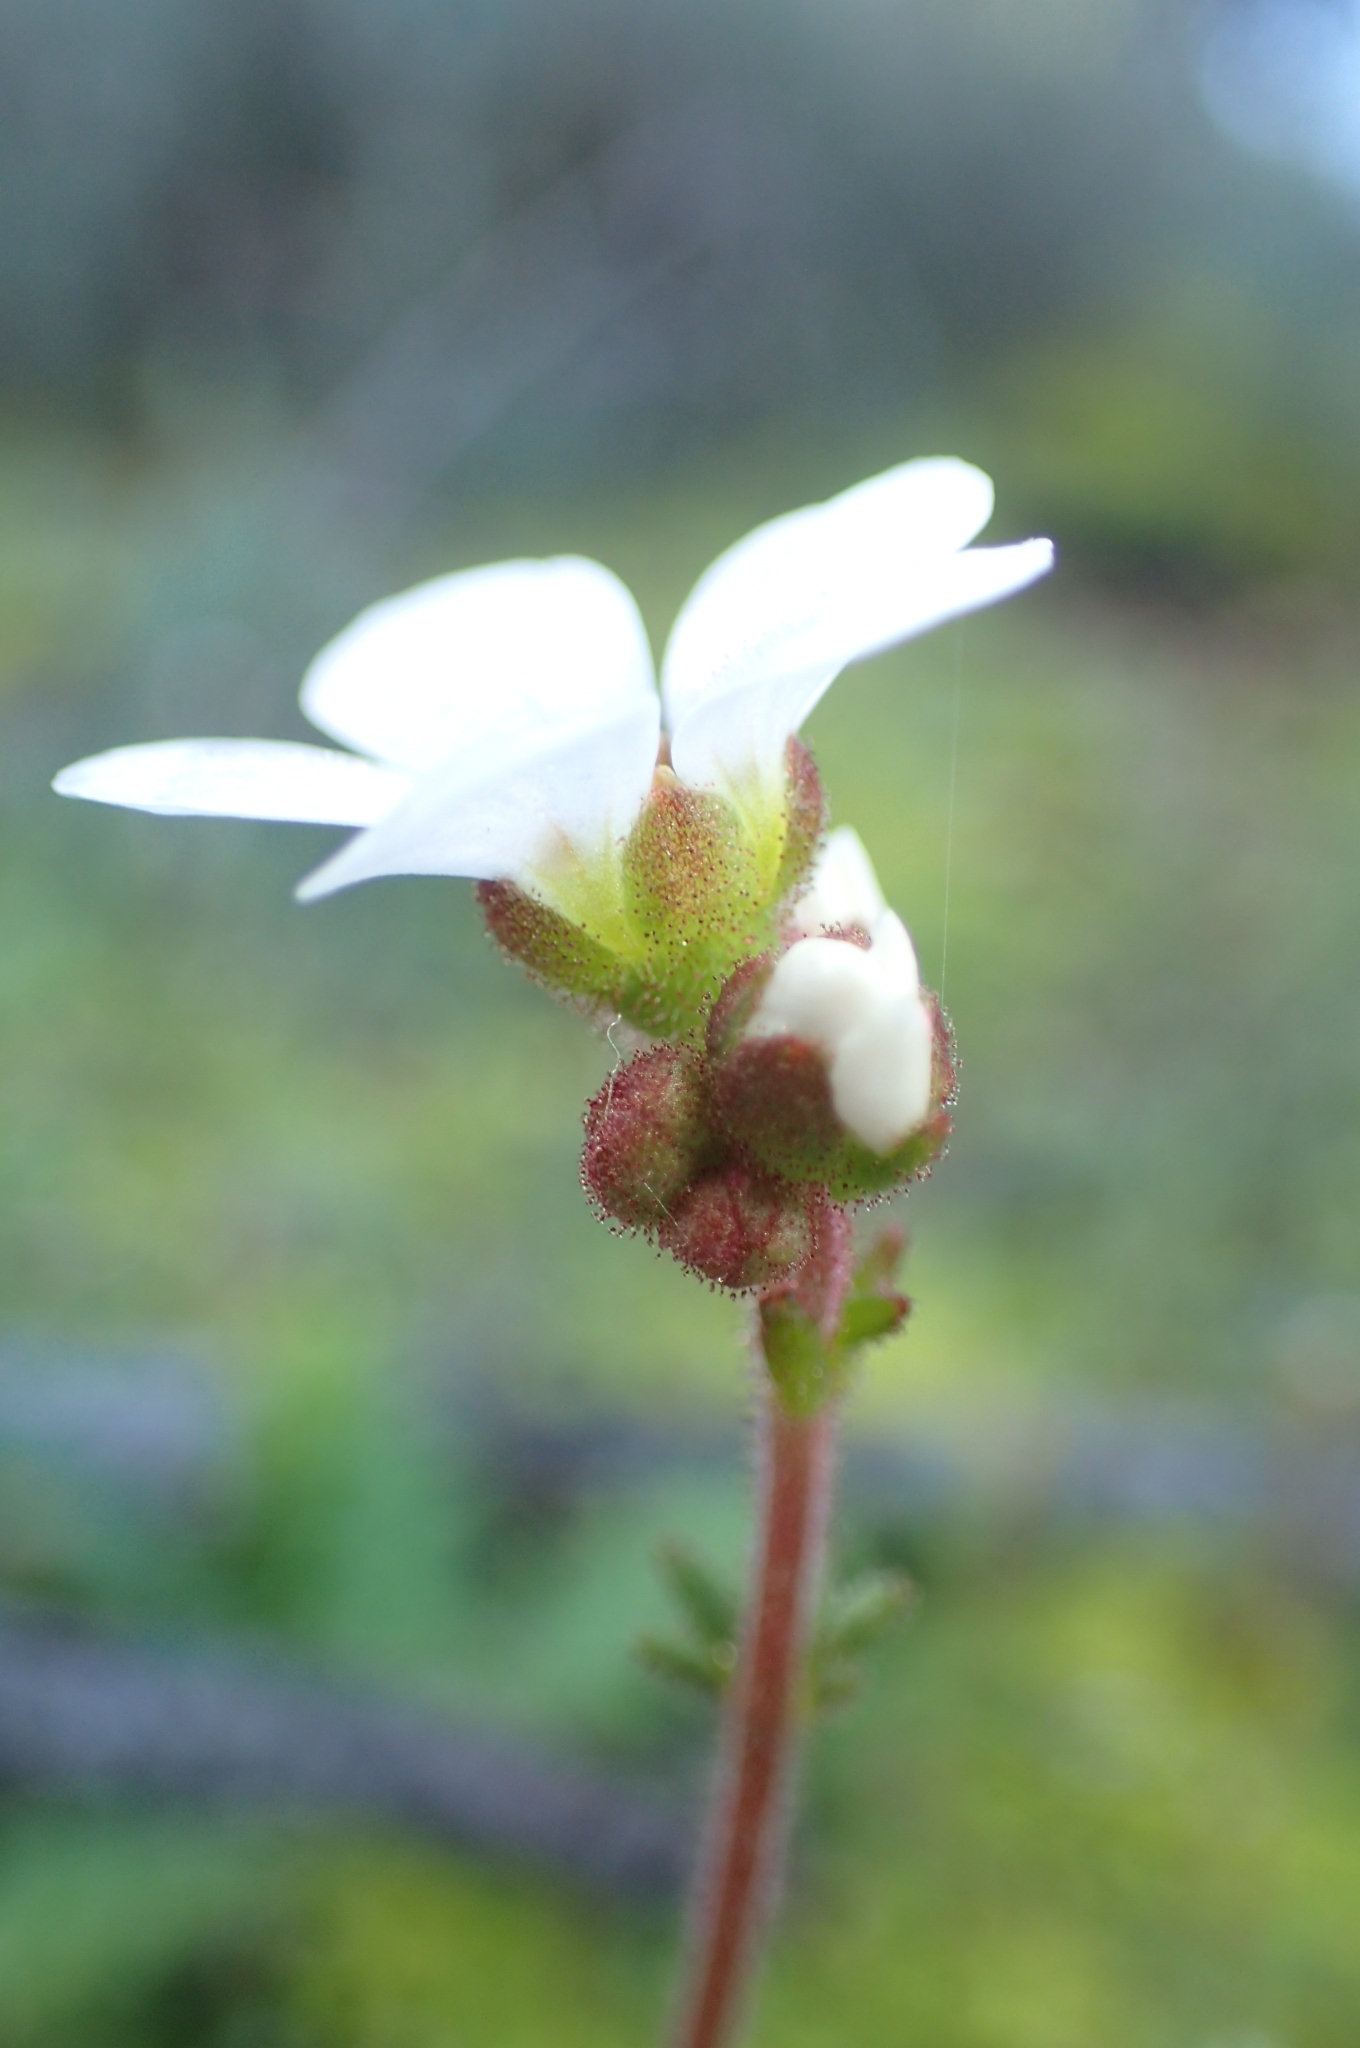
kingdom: Plantae
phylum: Tracheophyta
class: Magnoliopsida
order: Saxifragales
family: Saxifragaceae
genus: Saxifraga
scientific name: Saxifraga dichotoma
